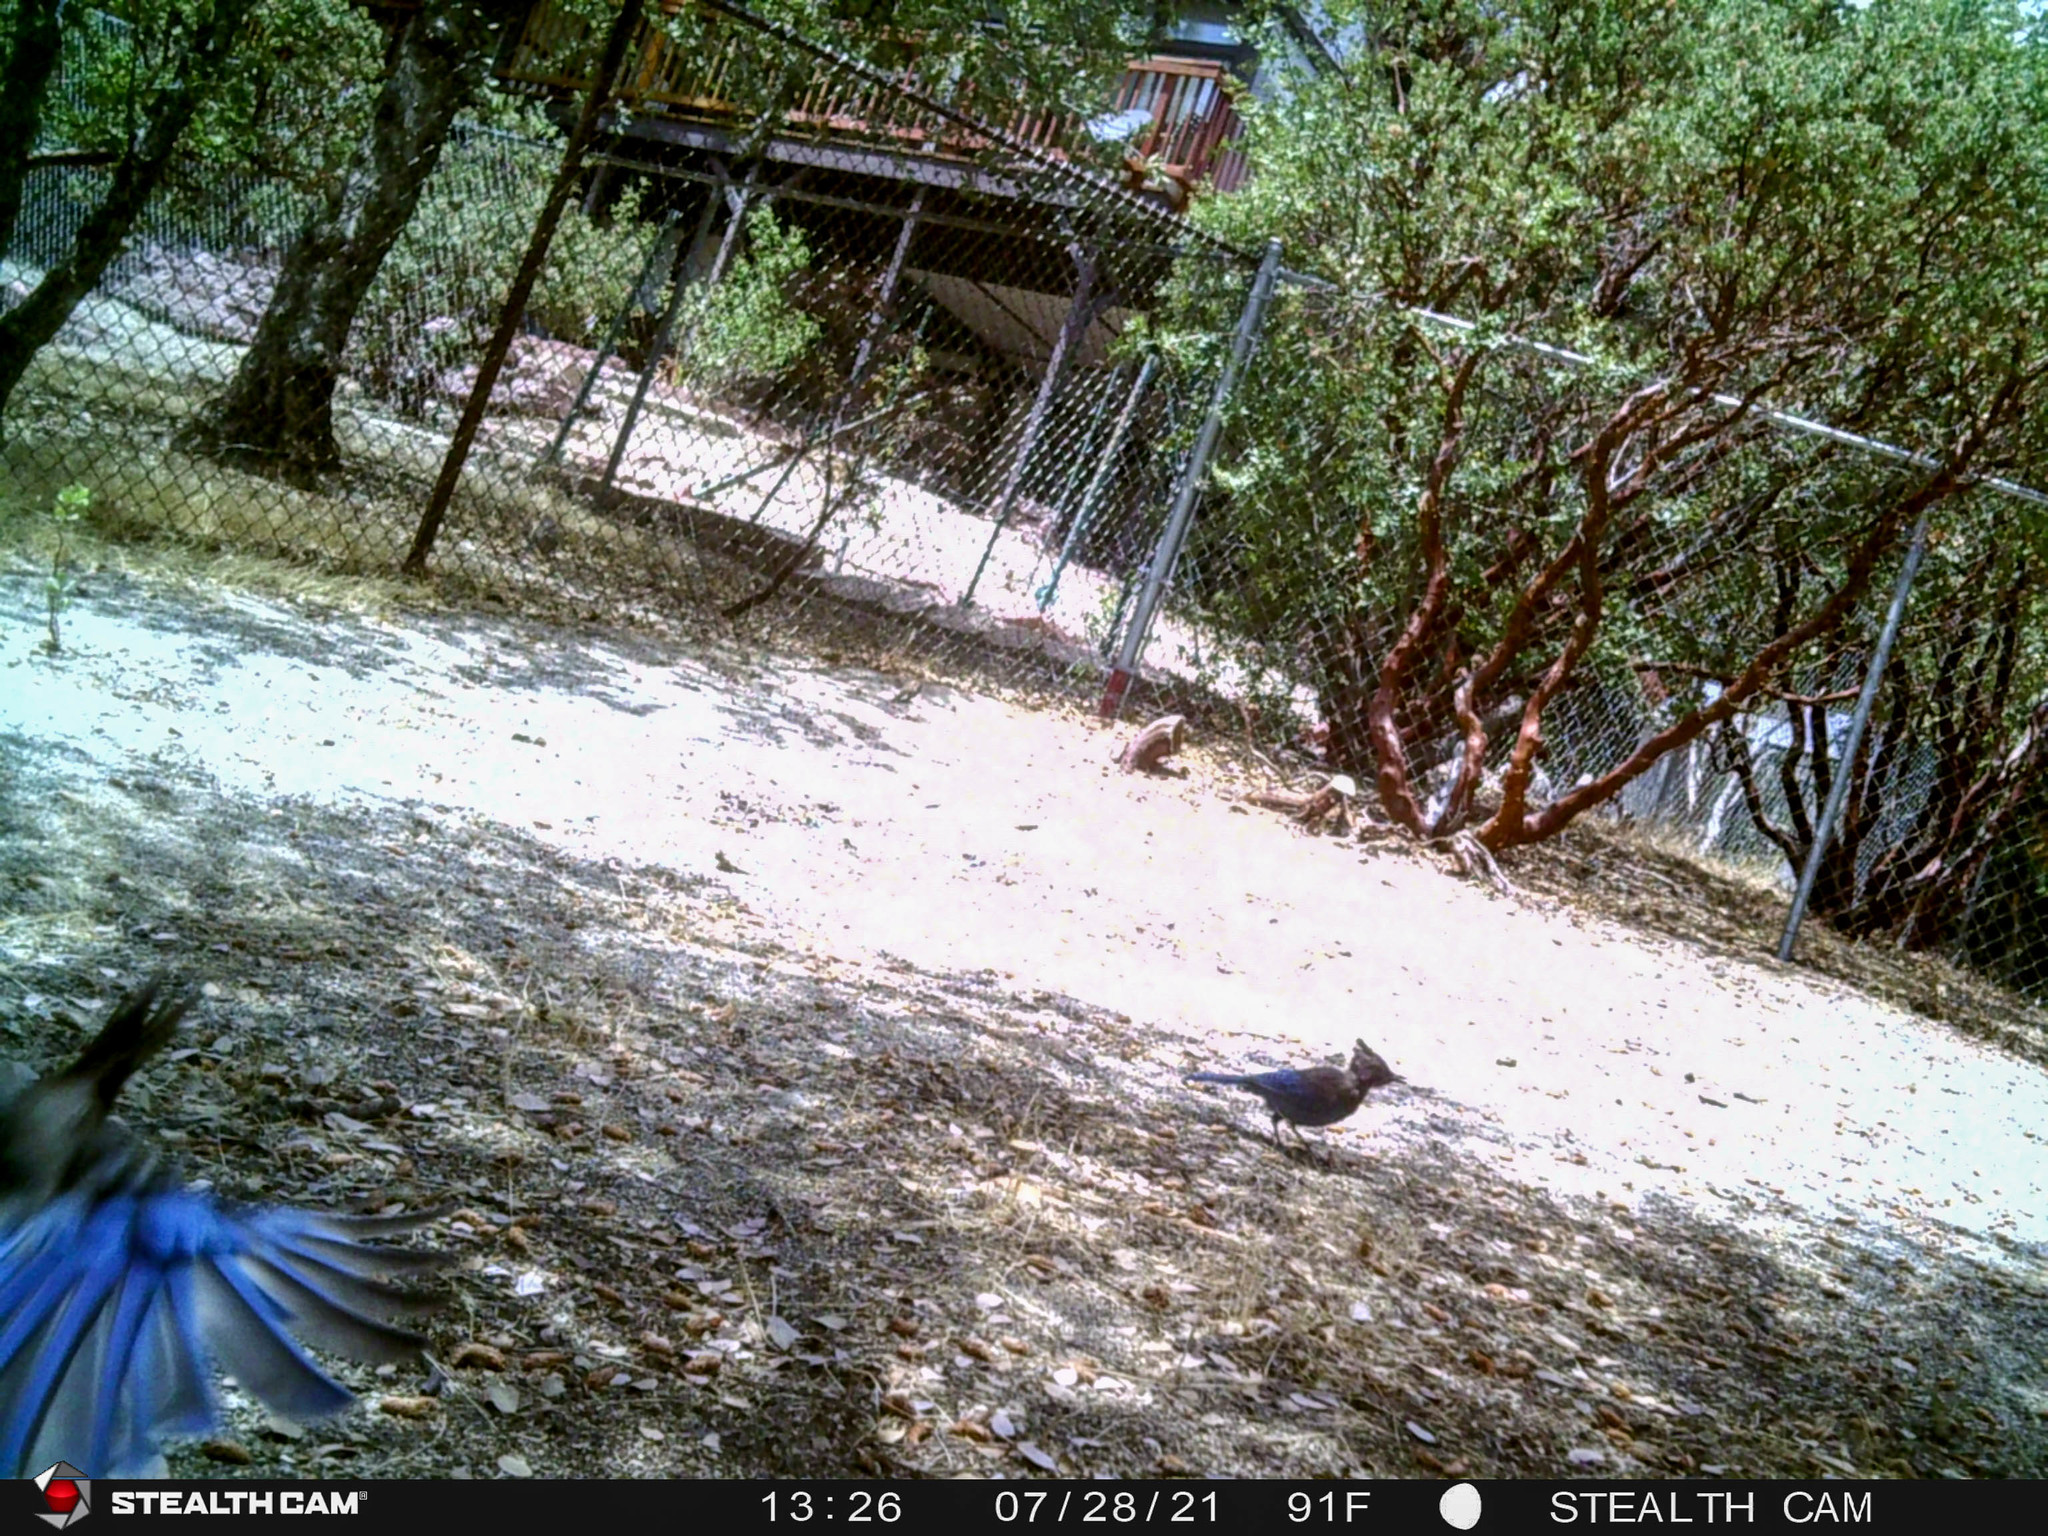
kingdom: Animalia
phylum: Chordata
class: Aves
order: Passeriformes
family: Corvidae
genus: Cyanocitta
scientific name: Cyanocitta stelleri
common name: Steller's jay
